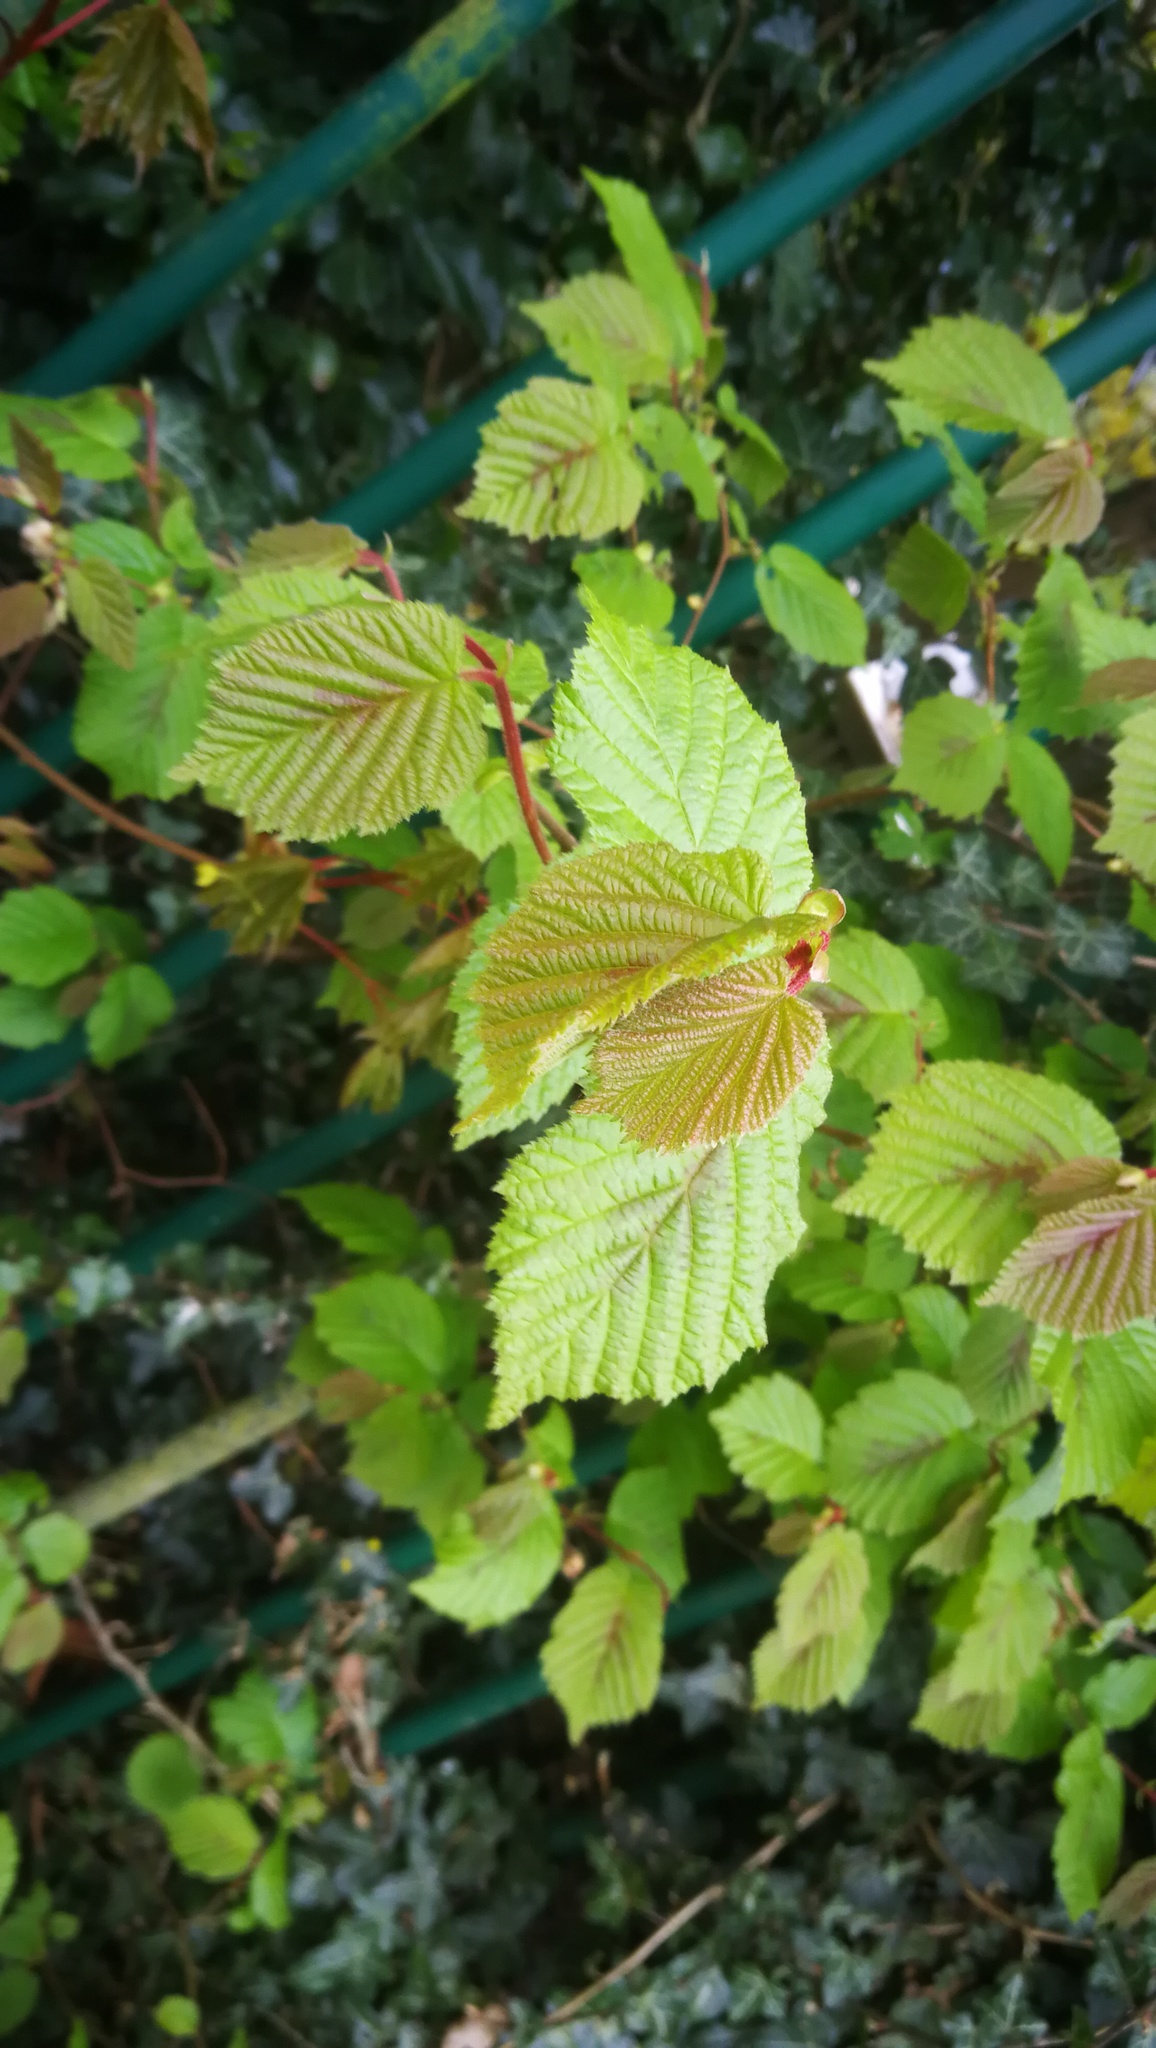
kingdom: Plantae
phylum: Tracheophyta
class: Magnoliopsida
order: Fagales
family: Betulaceae
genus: Corylus
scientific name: Corylus avellana
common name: European hazel
